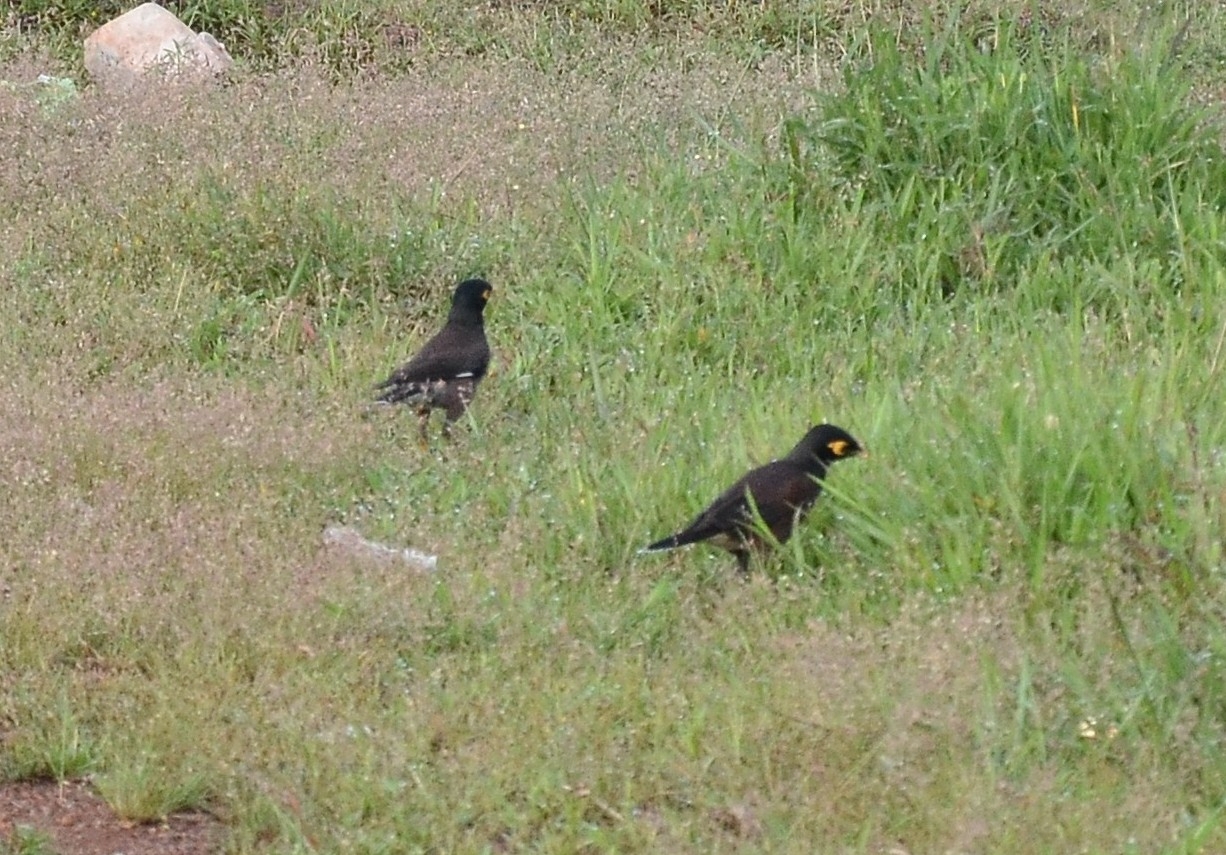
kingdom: Animalia
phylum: Chordata
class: Aves
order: Passeriformes
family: Sturnidae
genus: Acridotheres
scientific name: Acridotheres tristis
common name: Common myna
